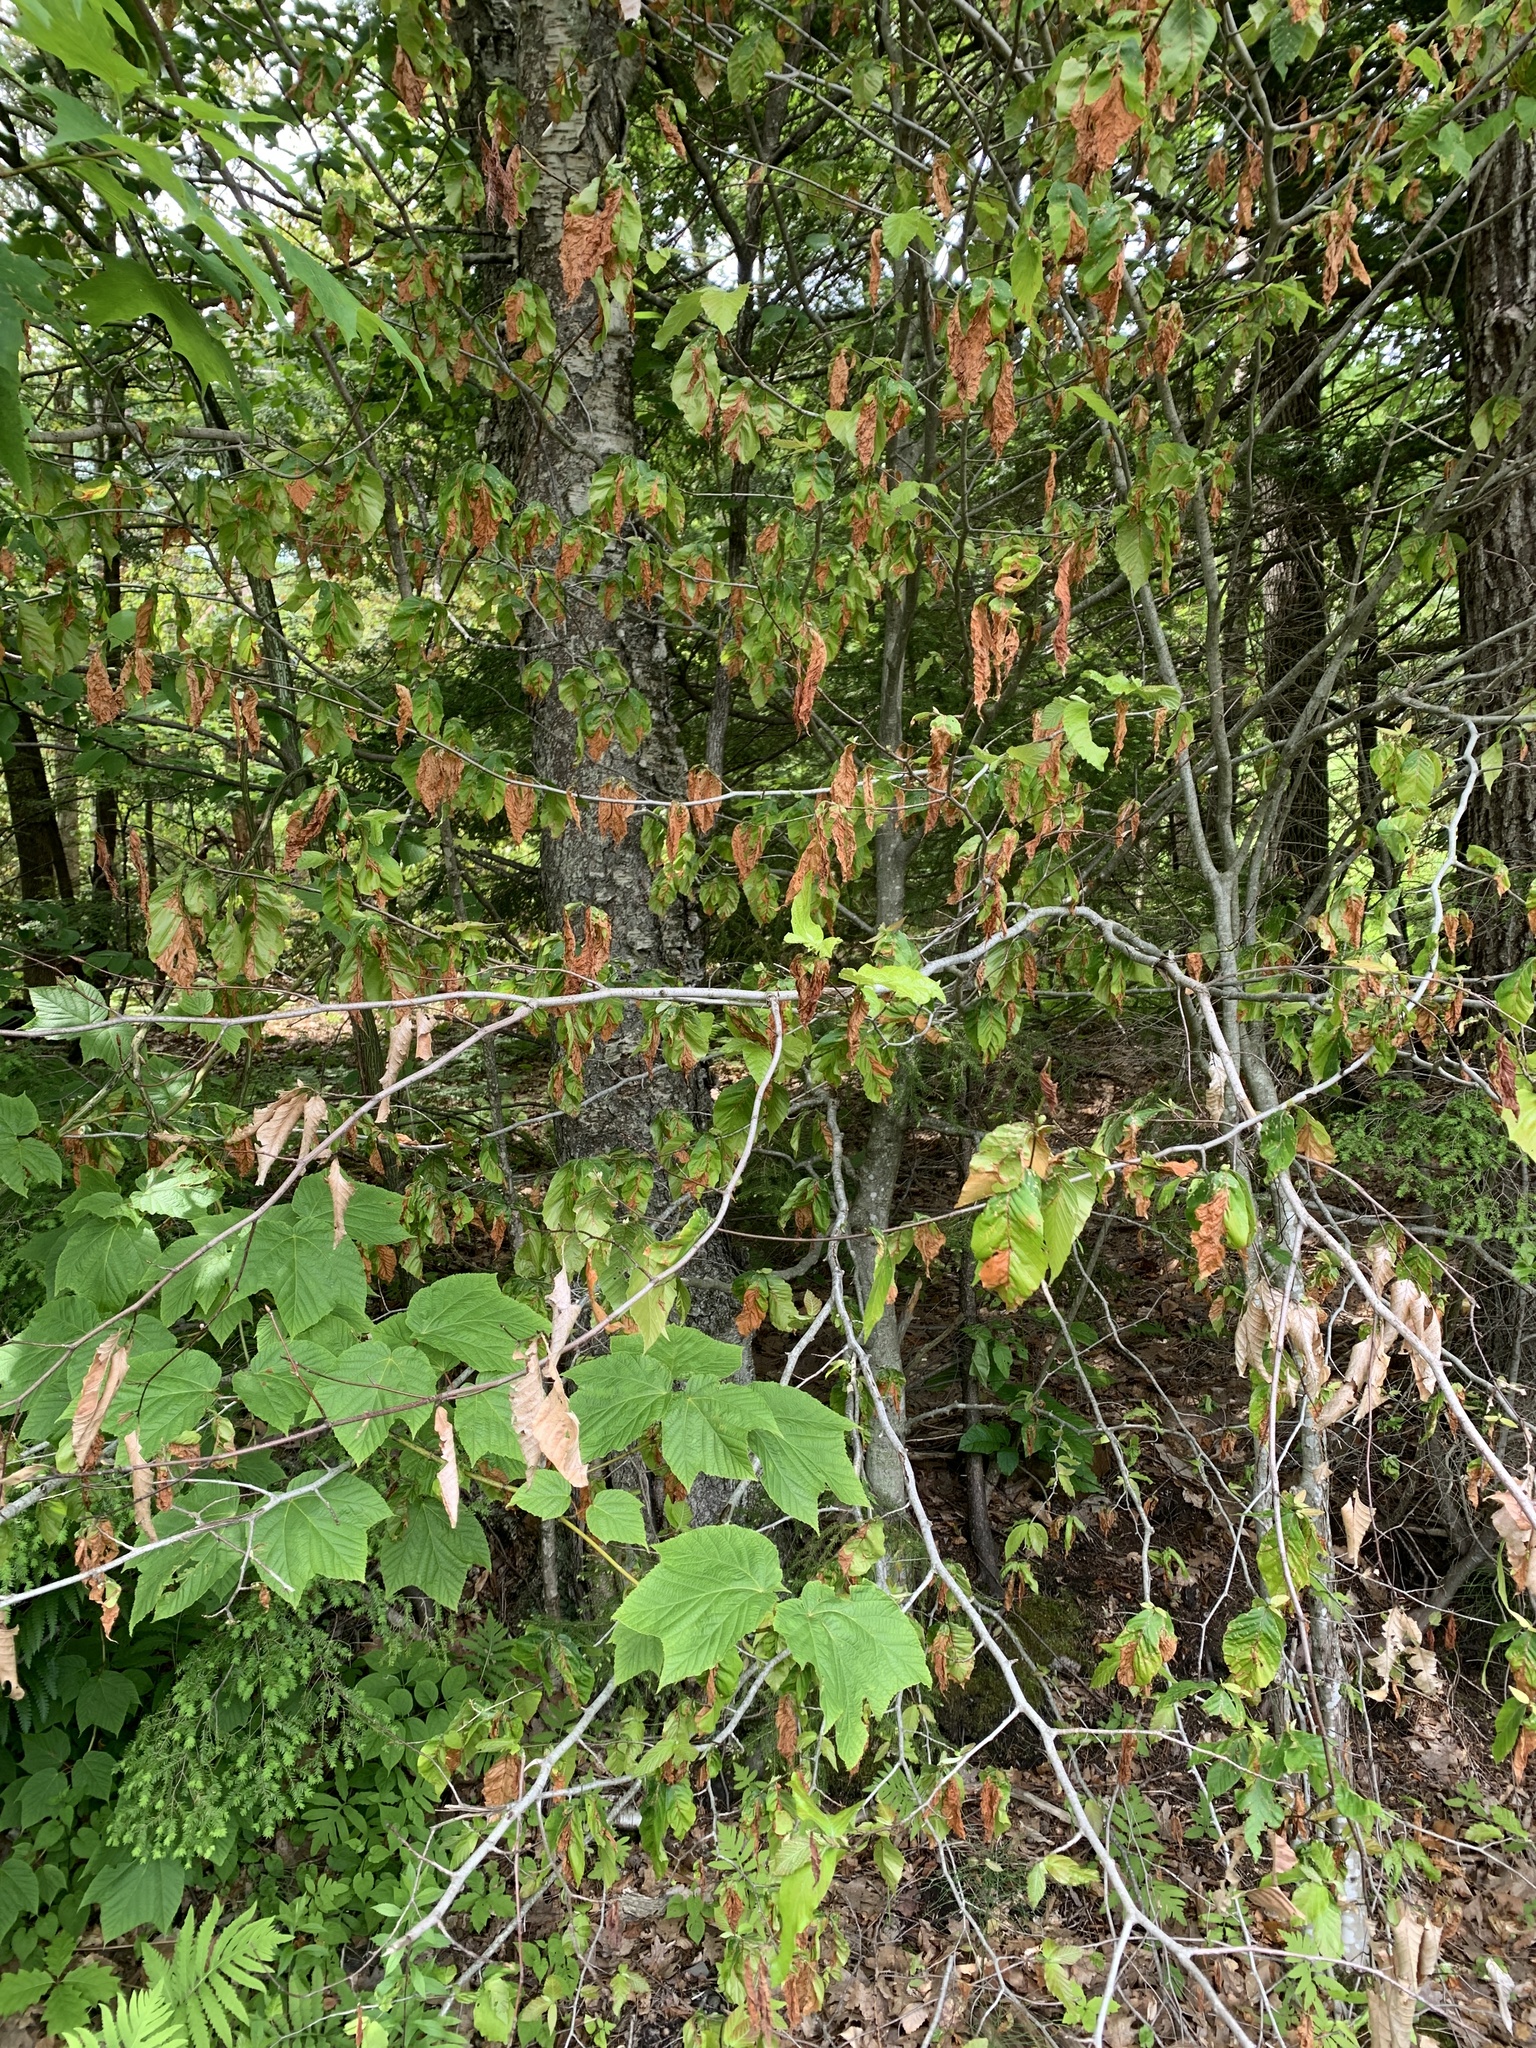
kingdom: Plantae
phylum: Tracheophyta
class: Magnoliopsida
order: Fagales
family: Fagaceae
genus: Fagus
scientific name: Fagus grandifolia
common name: American beech
